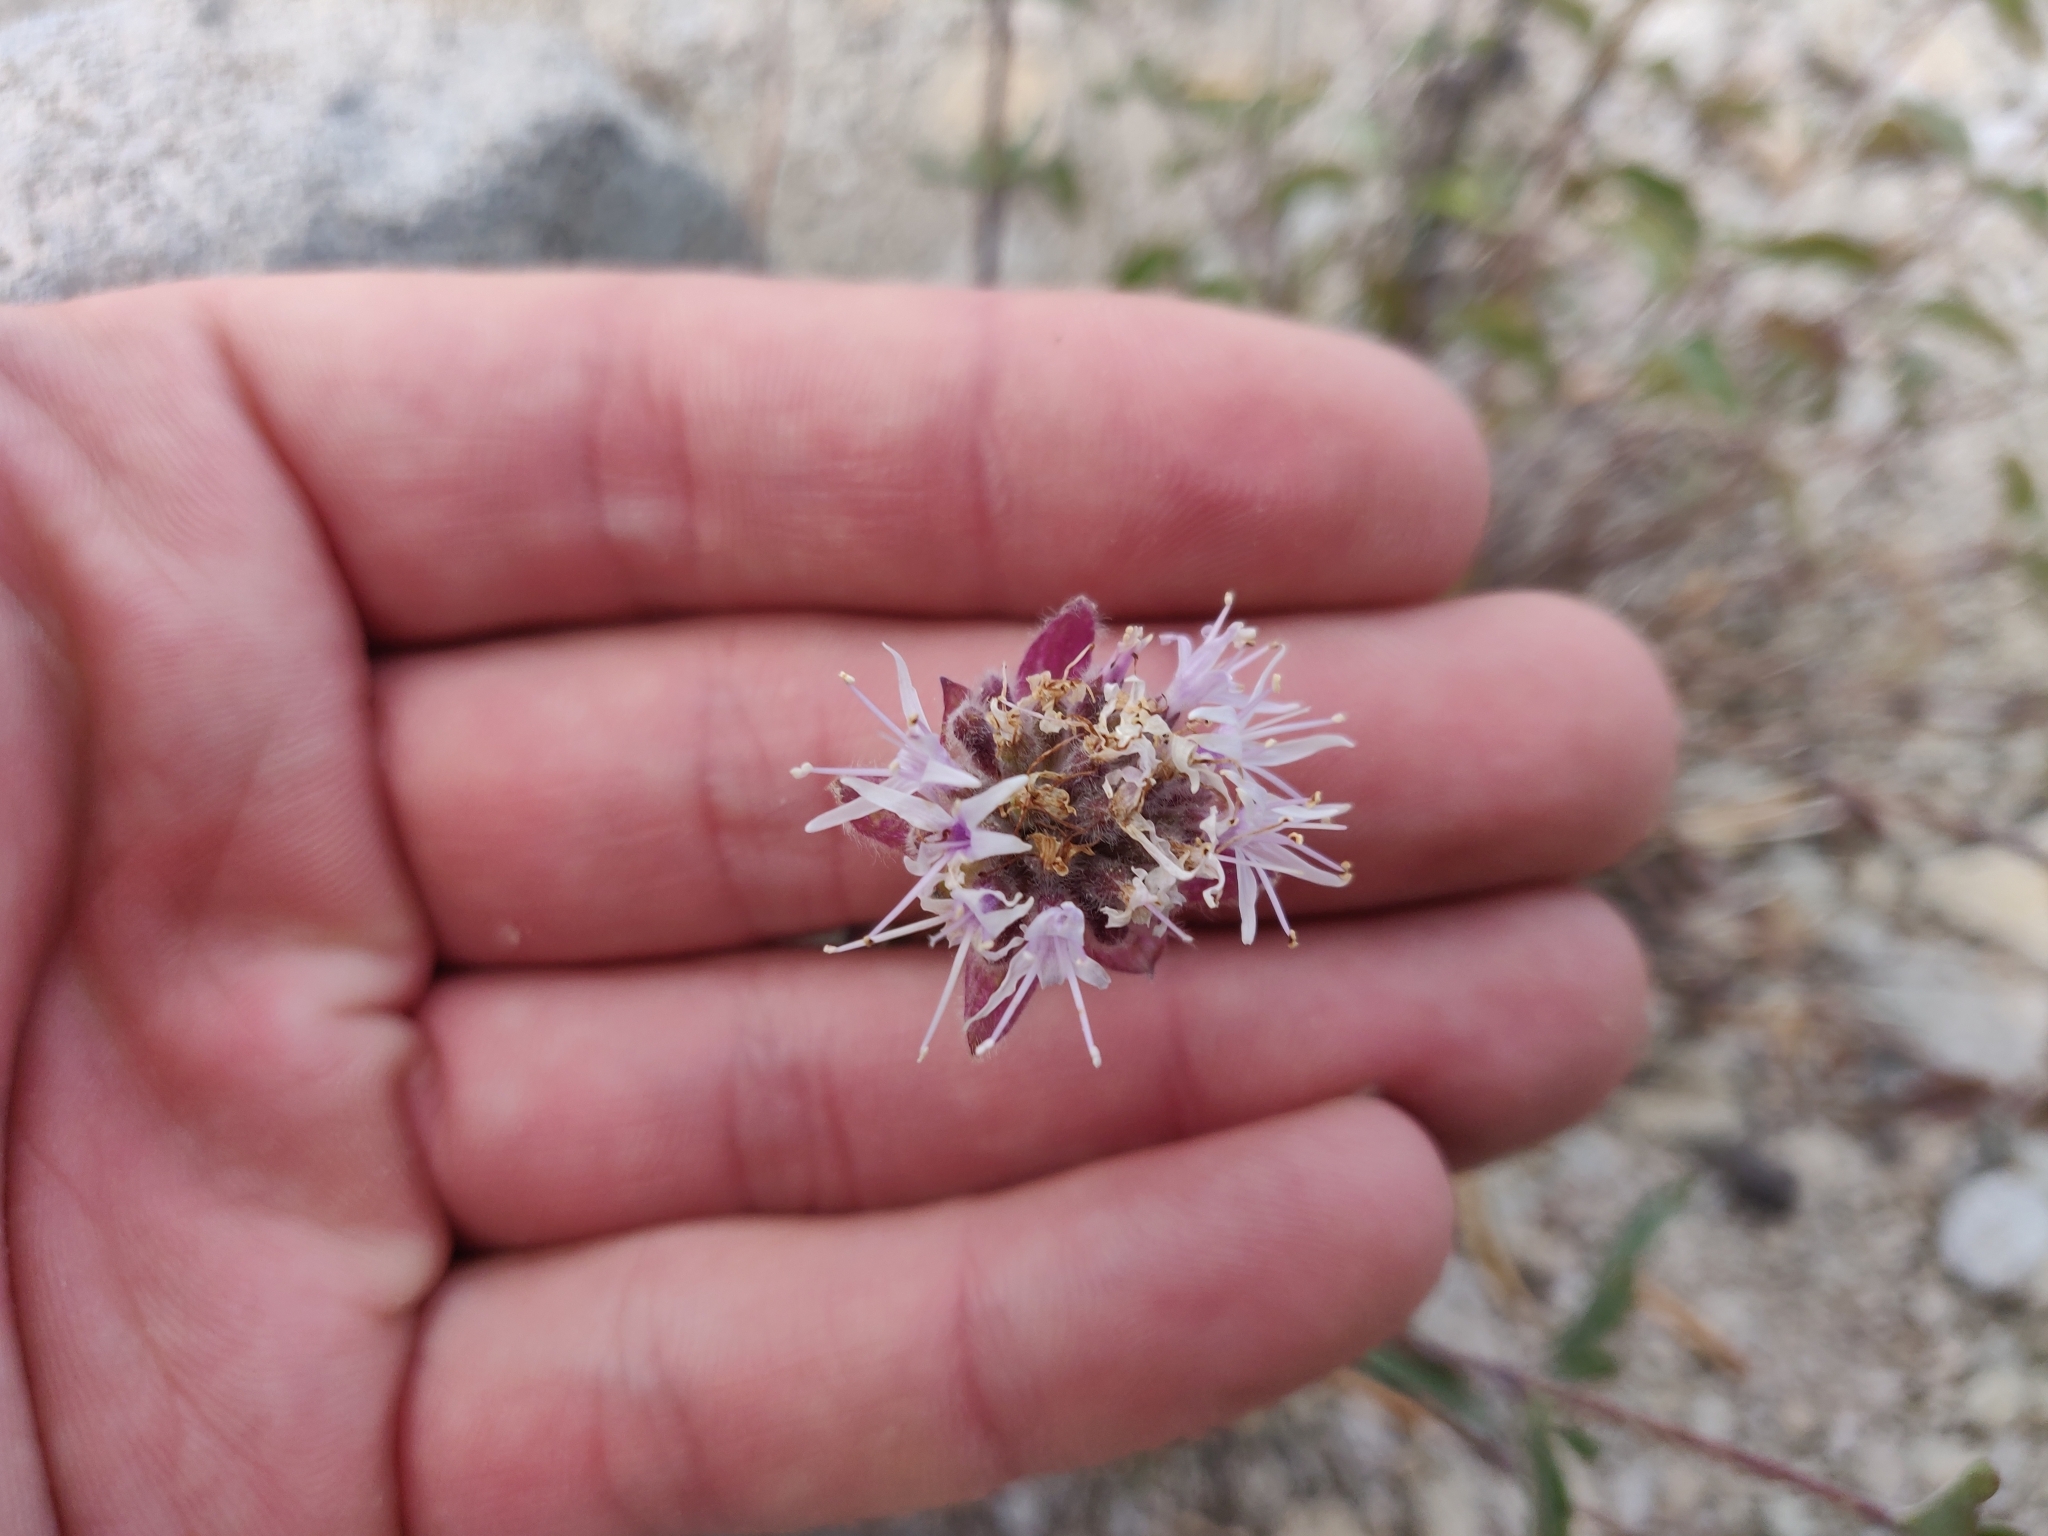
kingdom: Plantae
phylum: Tracheophyta
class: Magnoliopsida
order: Lamiales
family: Lamiaceae
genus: Monardella
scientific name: Monardella odoratissima
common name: Pacific monardella
